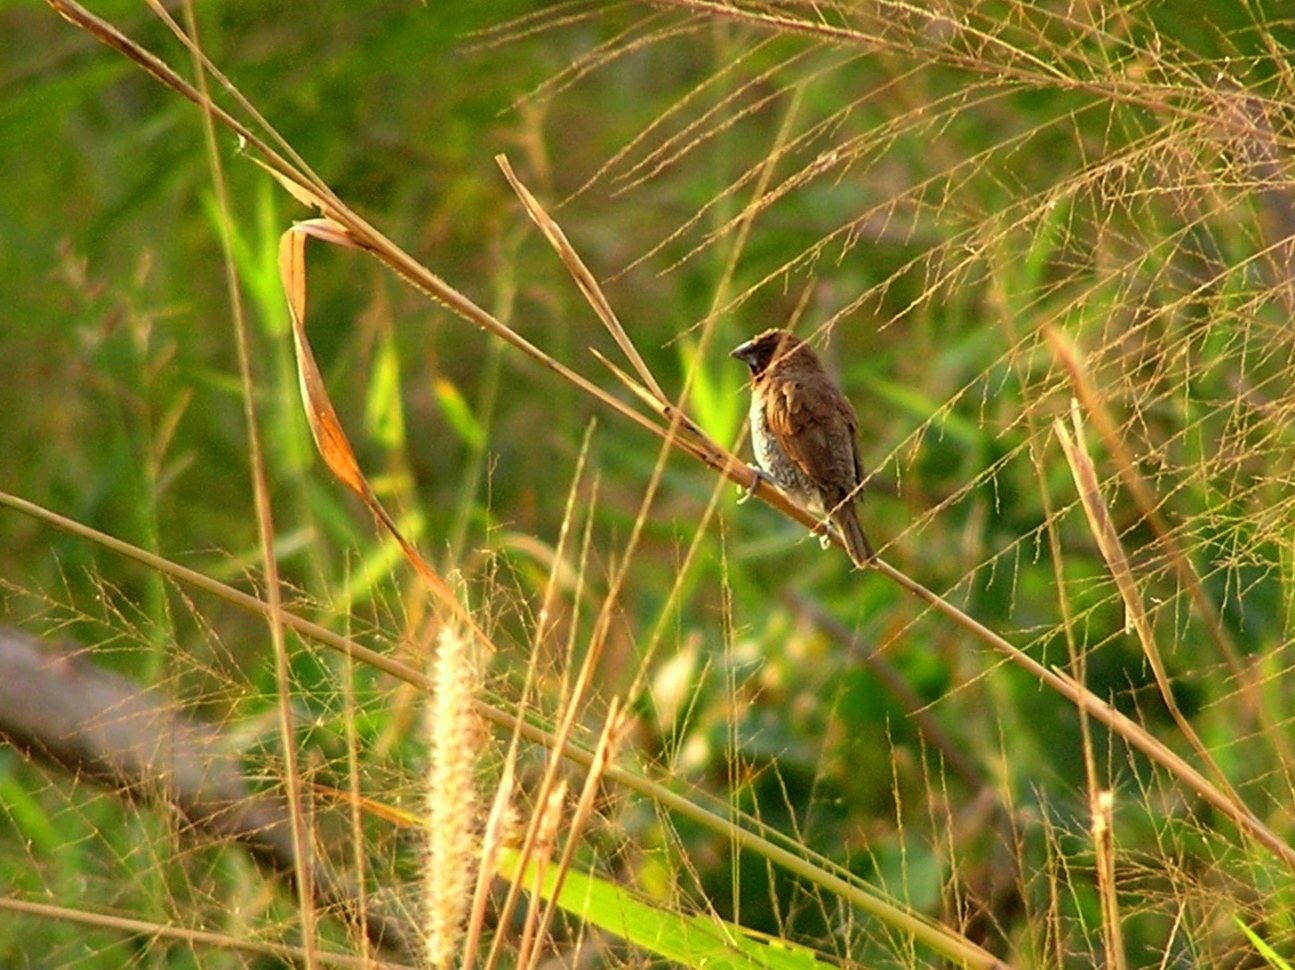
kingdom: Animalia
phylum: Chordata
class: Aves
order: Passeriformes
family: Estrildidae
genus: Lonchura
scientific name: Lonchura punctulata
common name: Scaly-breasted munia
